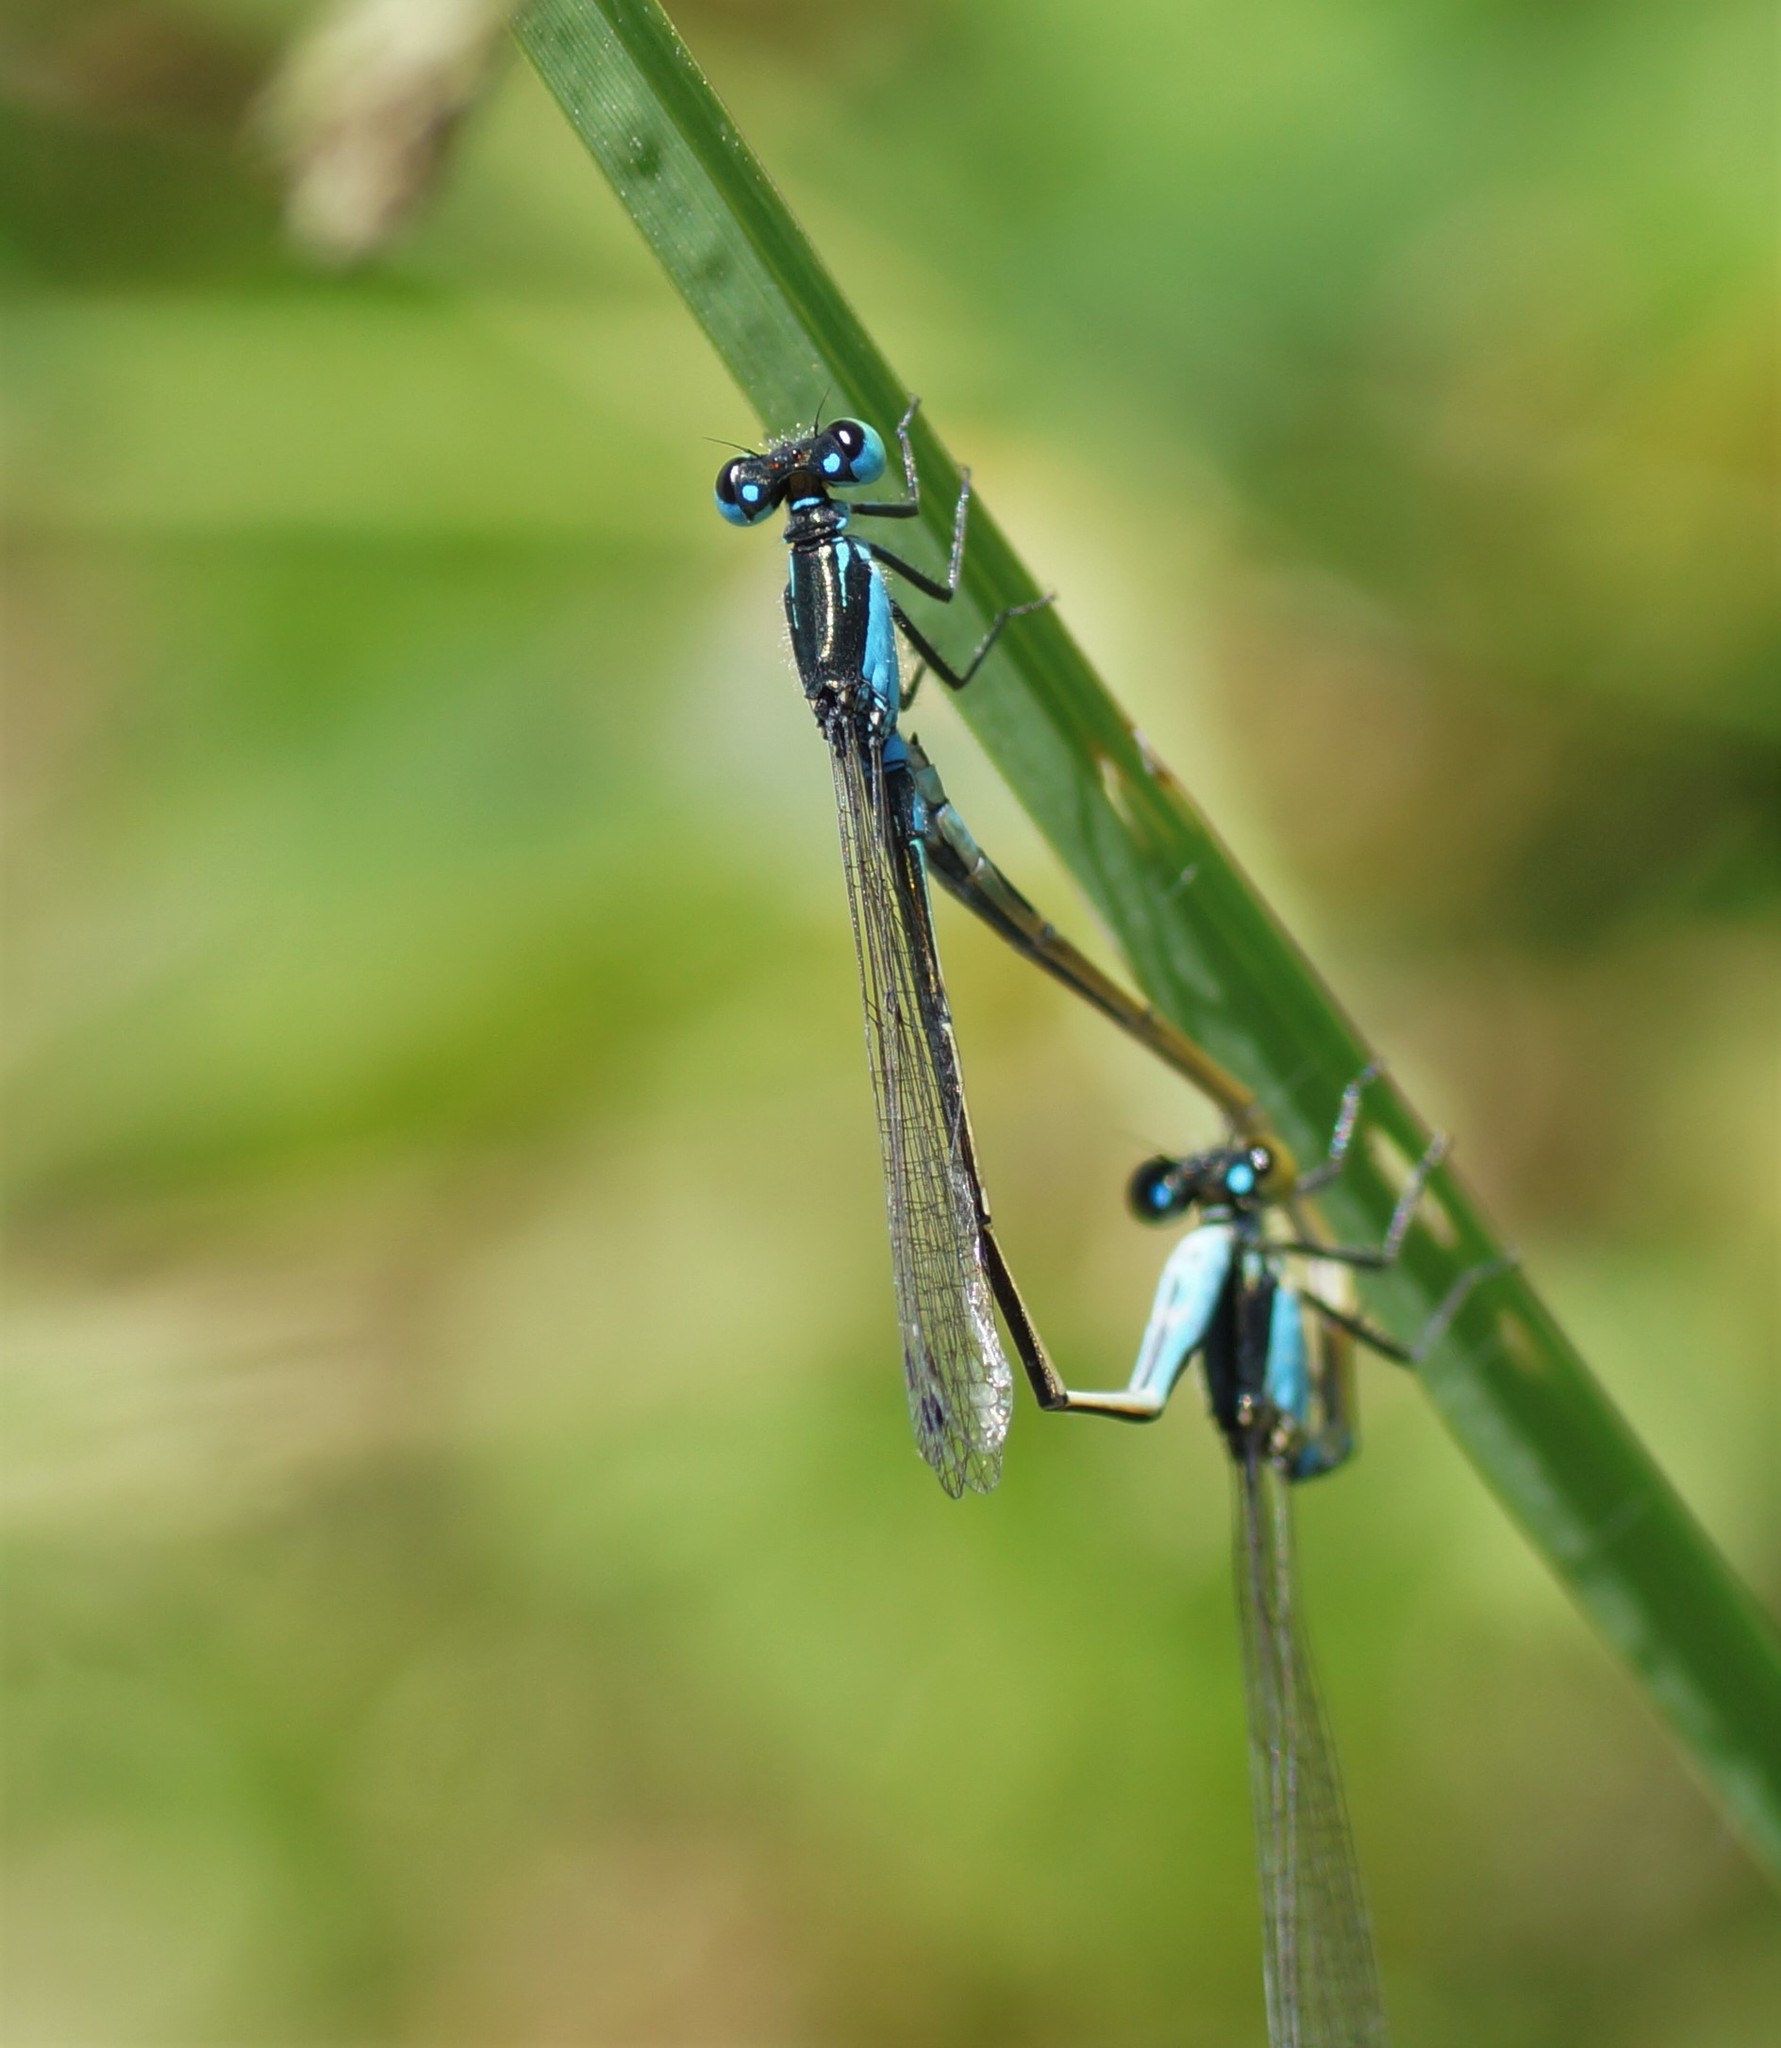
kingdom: Animalia
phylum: Arthropoda
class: Insecta
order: Odonata
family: Coenagrionidae
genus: Ischnura
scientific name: Ischnura heterosticta
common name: Common bluetail
